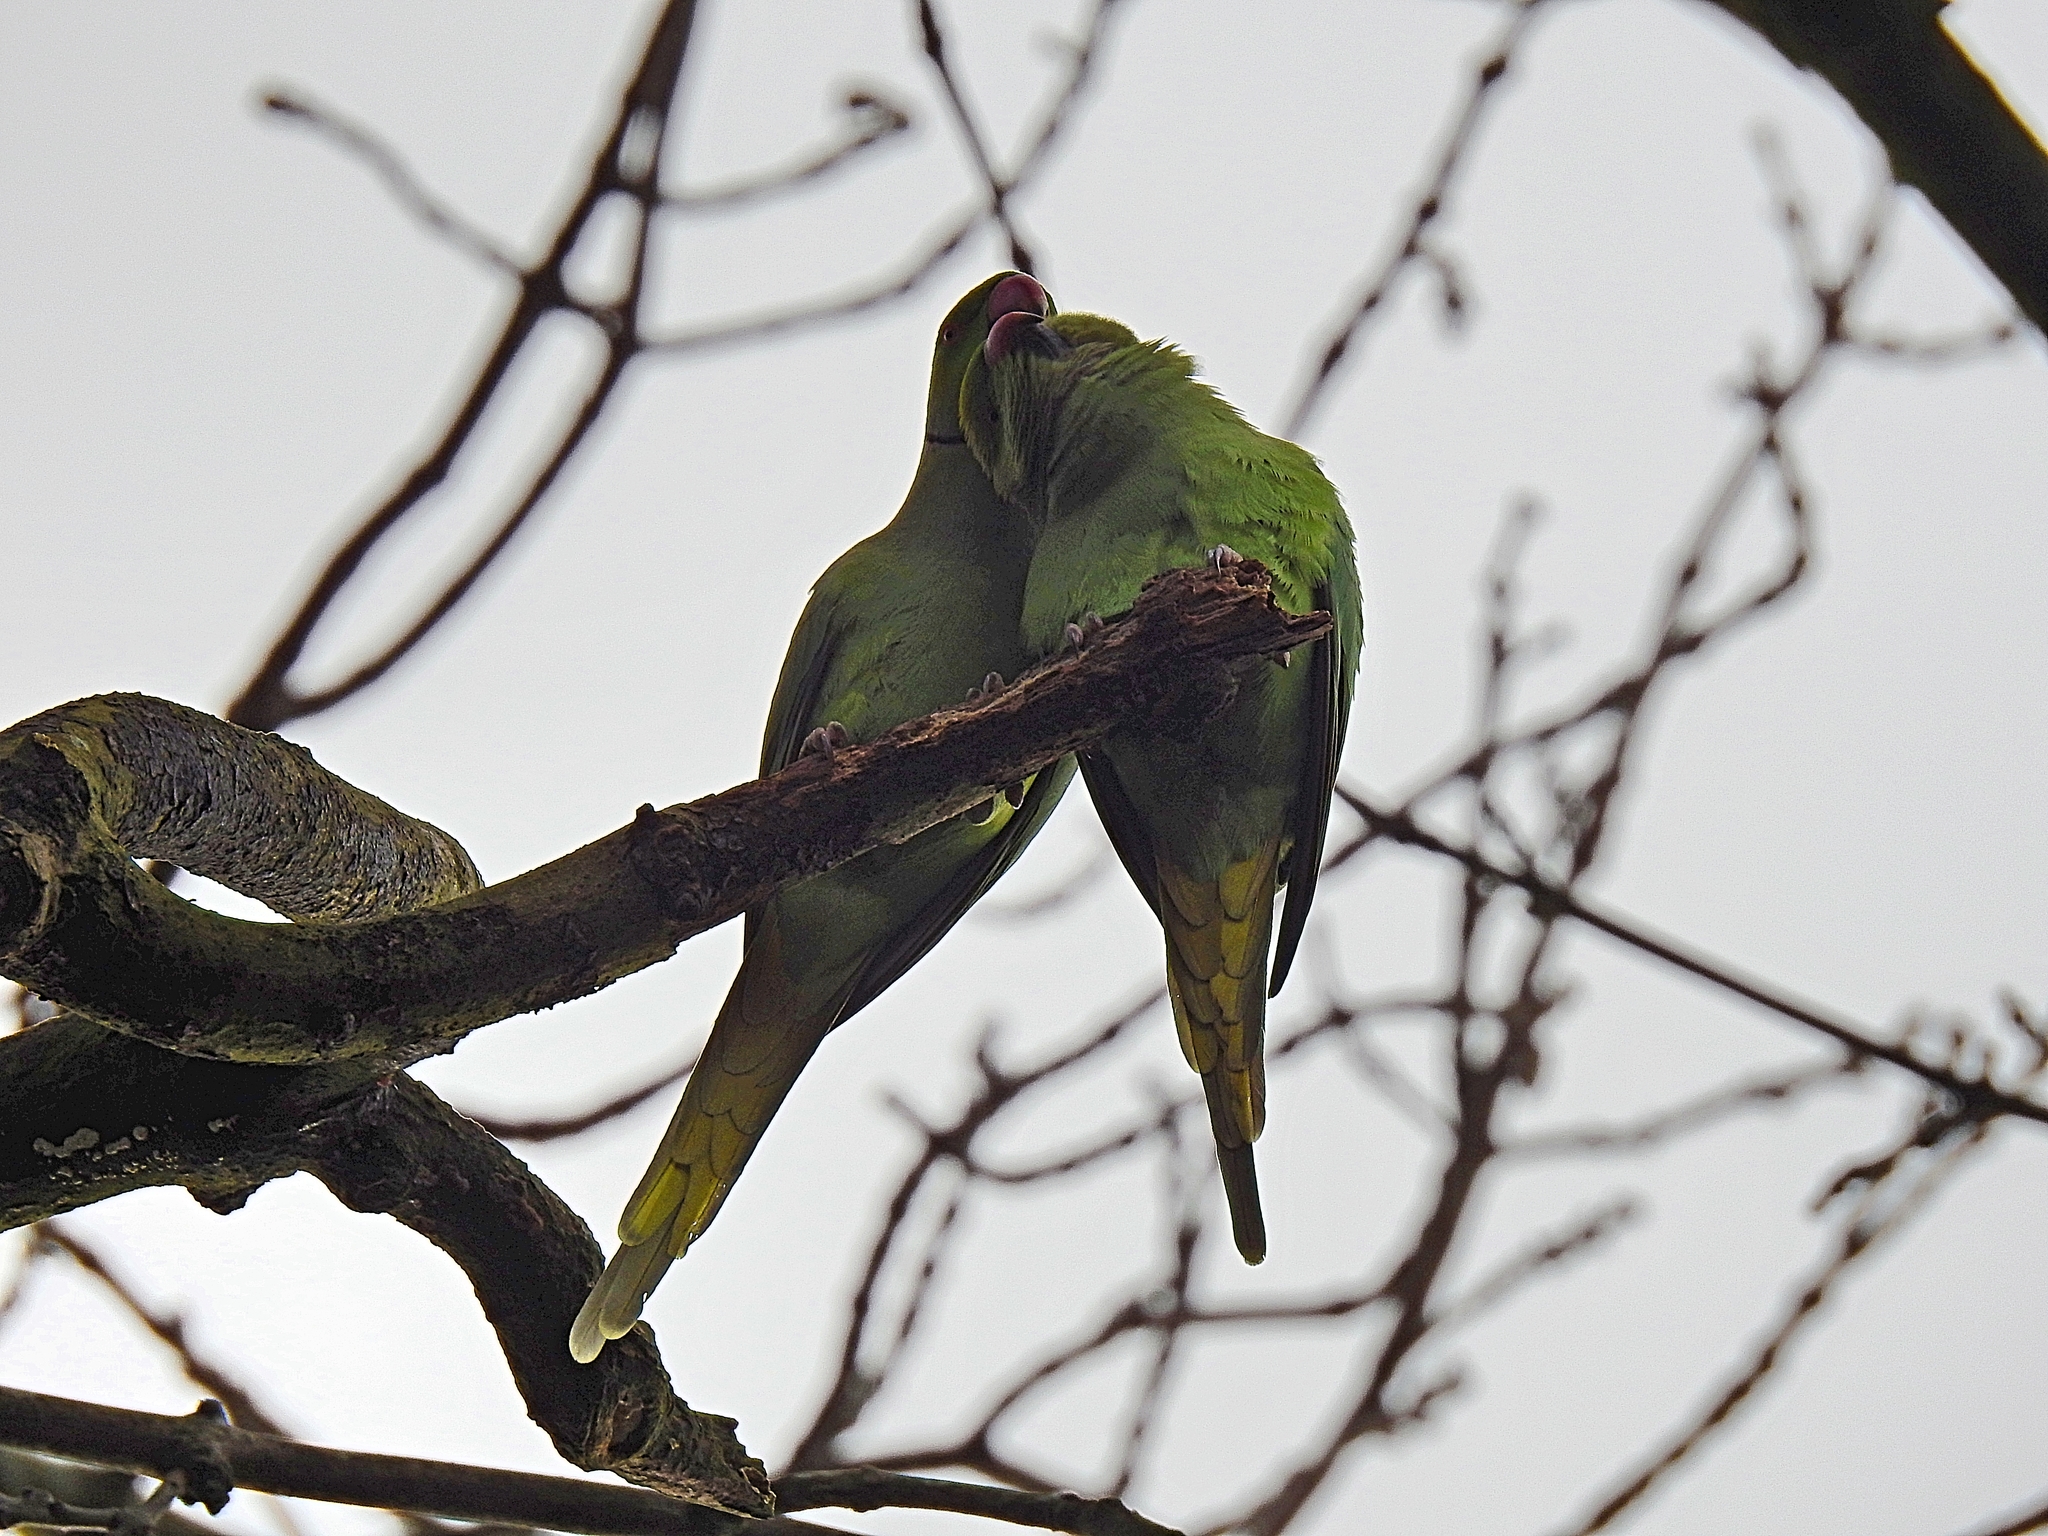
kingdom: Animalia
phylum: Chordata
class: Aves
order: Psittaciformes
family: Psittacidae
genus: Psittacula
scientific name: Psittacula krameri
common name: Rose-ringed parakeet
